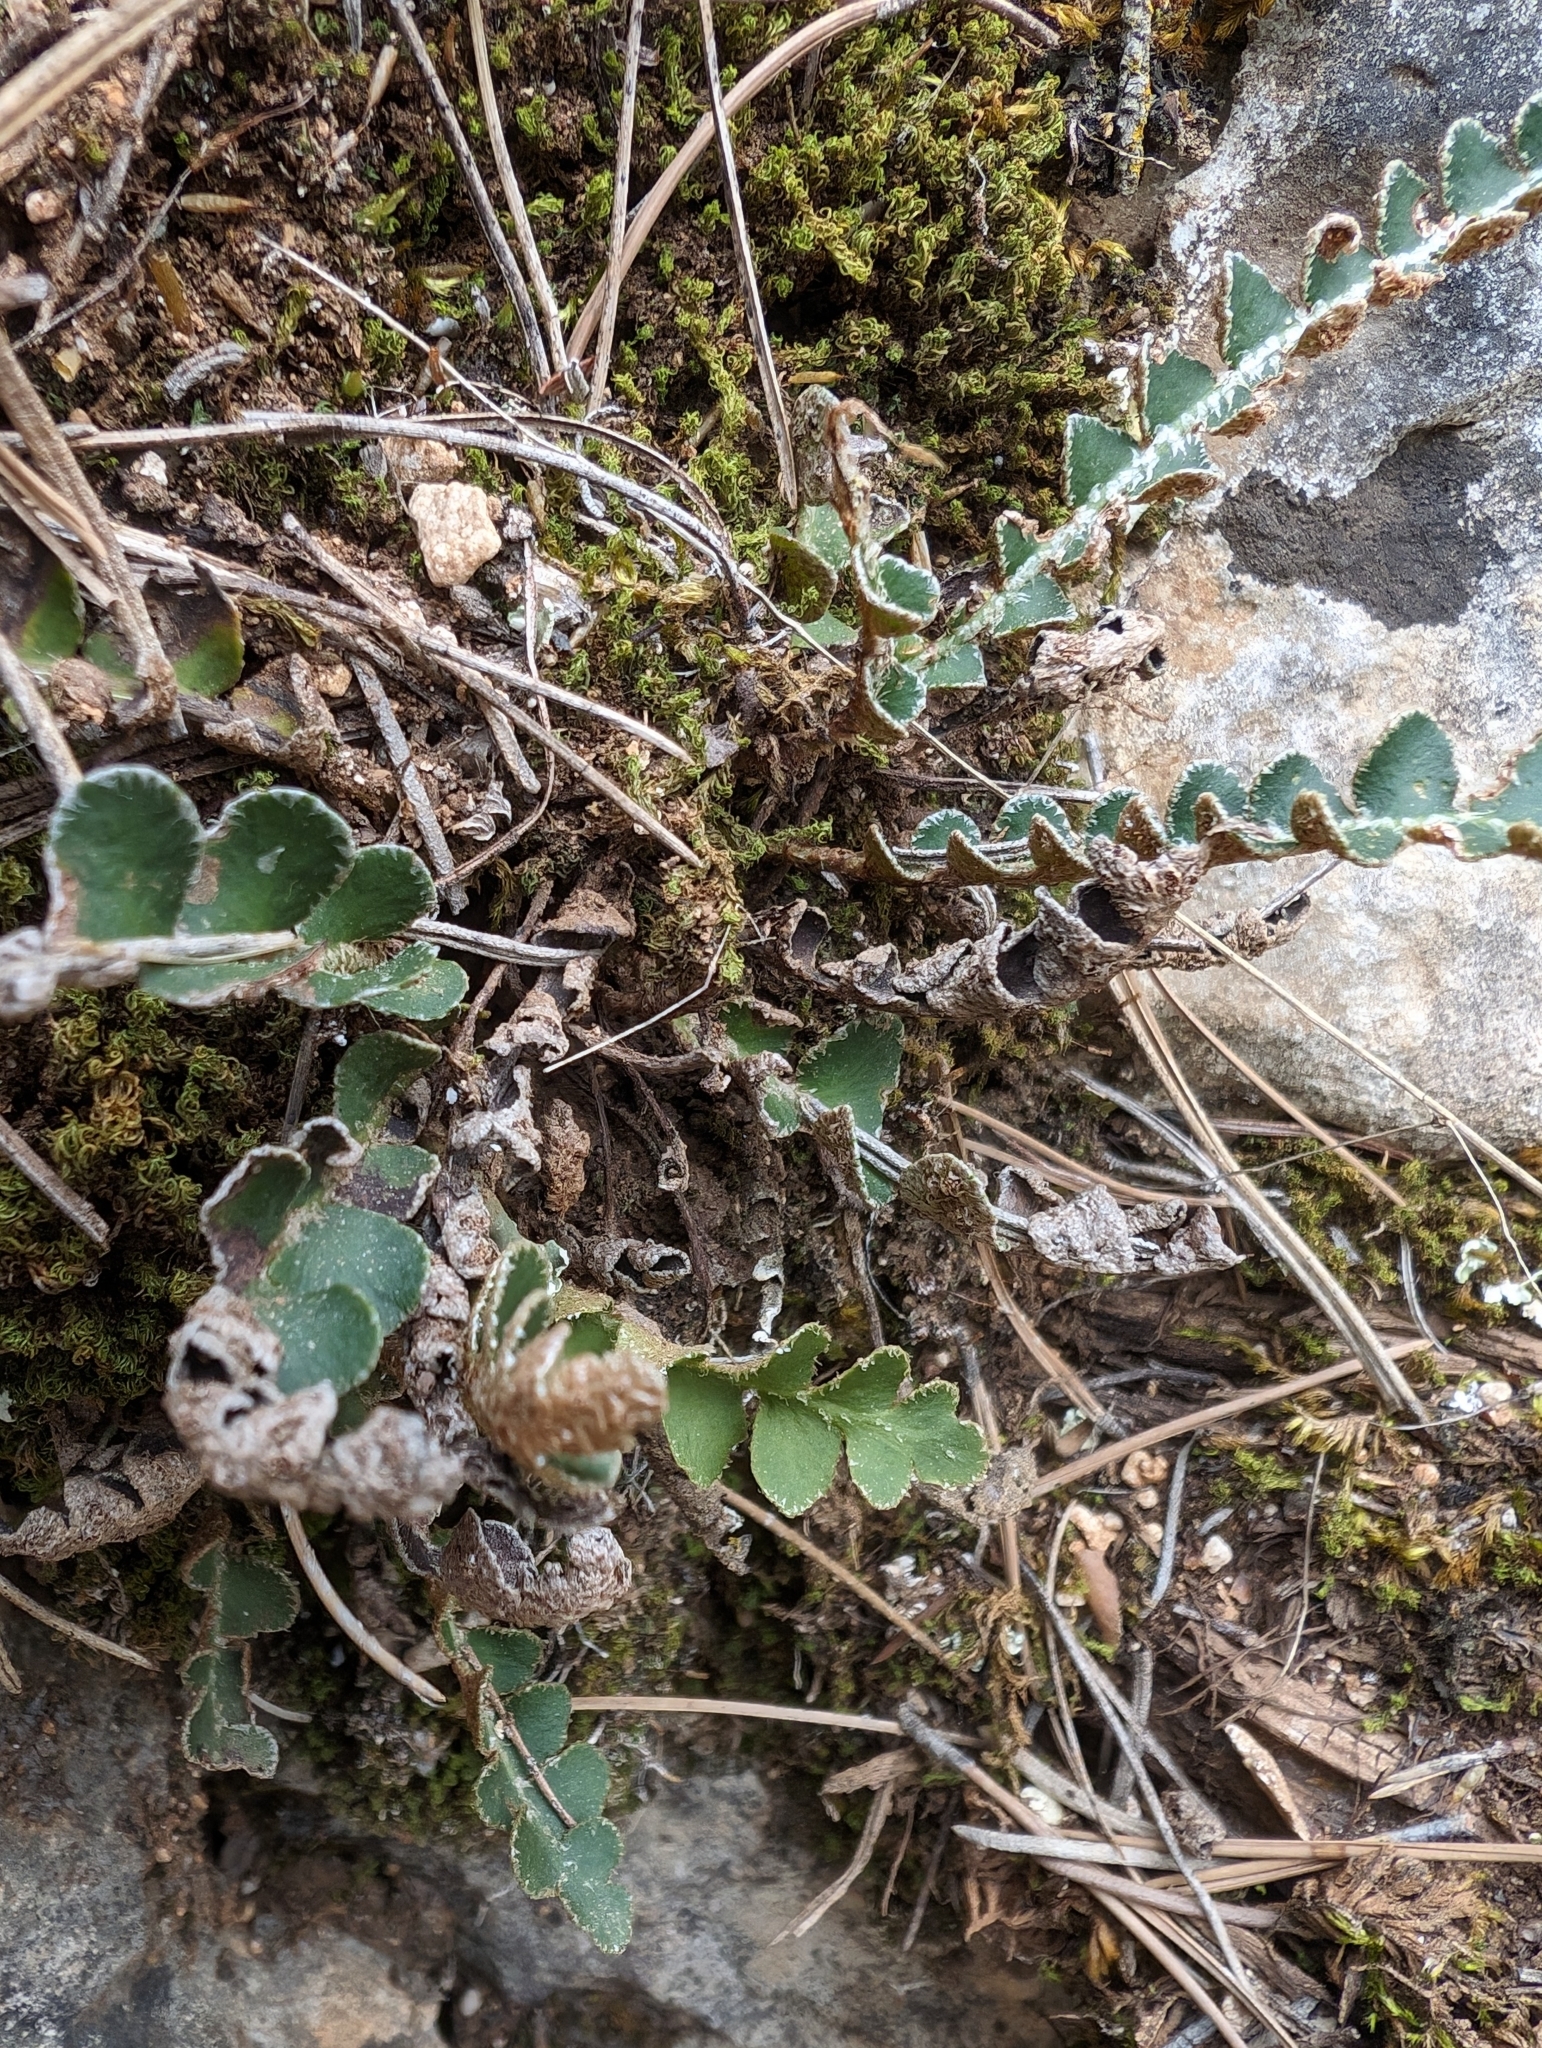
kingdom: Plantae
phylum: Tracheophyta
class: Polypodiopsida
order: Polypodiales
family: Aspleniaceae
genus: Asplenium
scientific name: Asplenium ceterach
